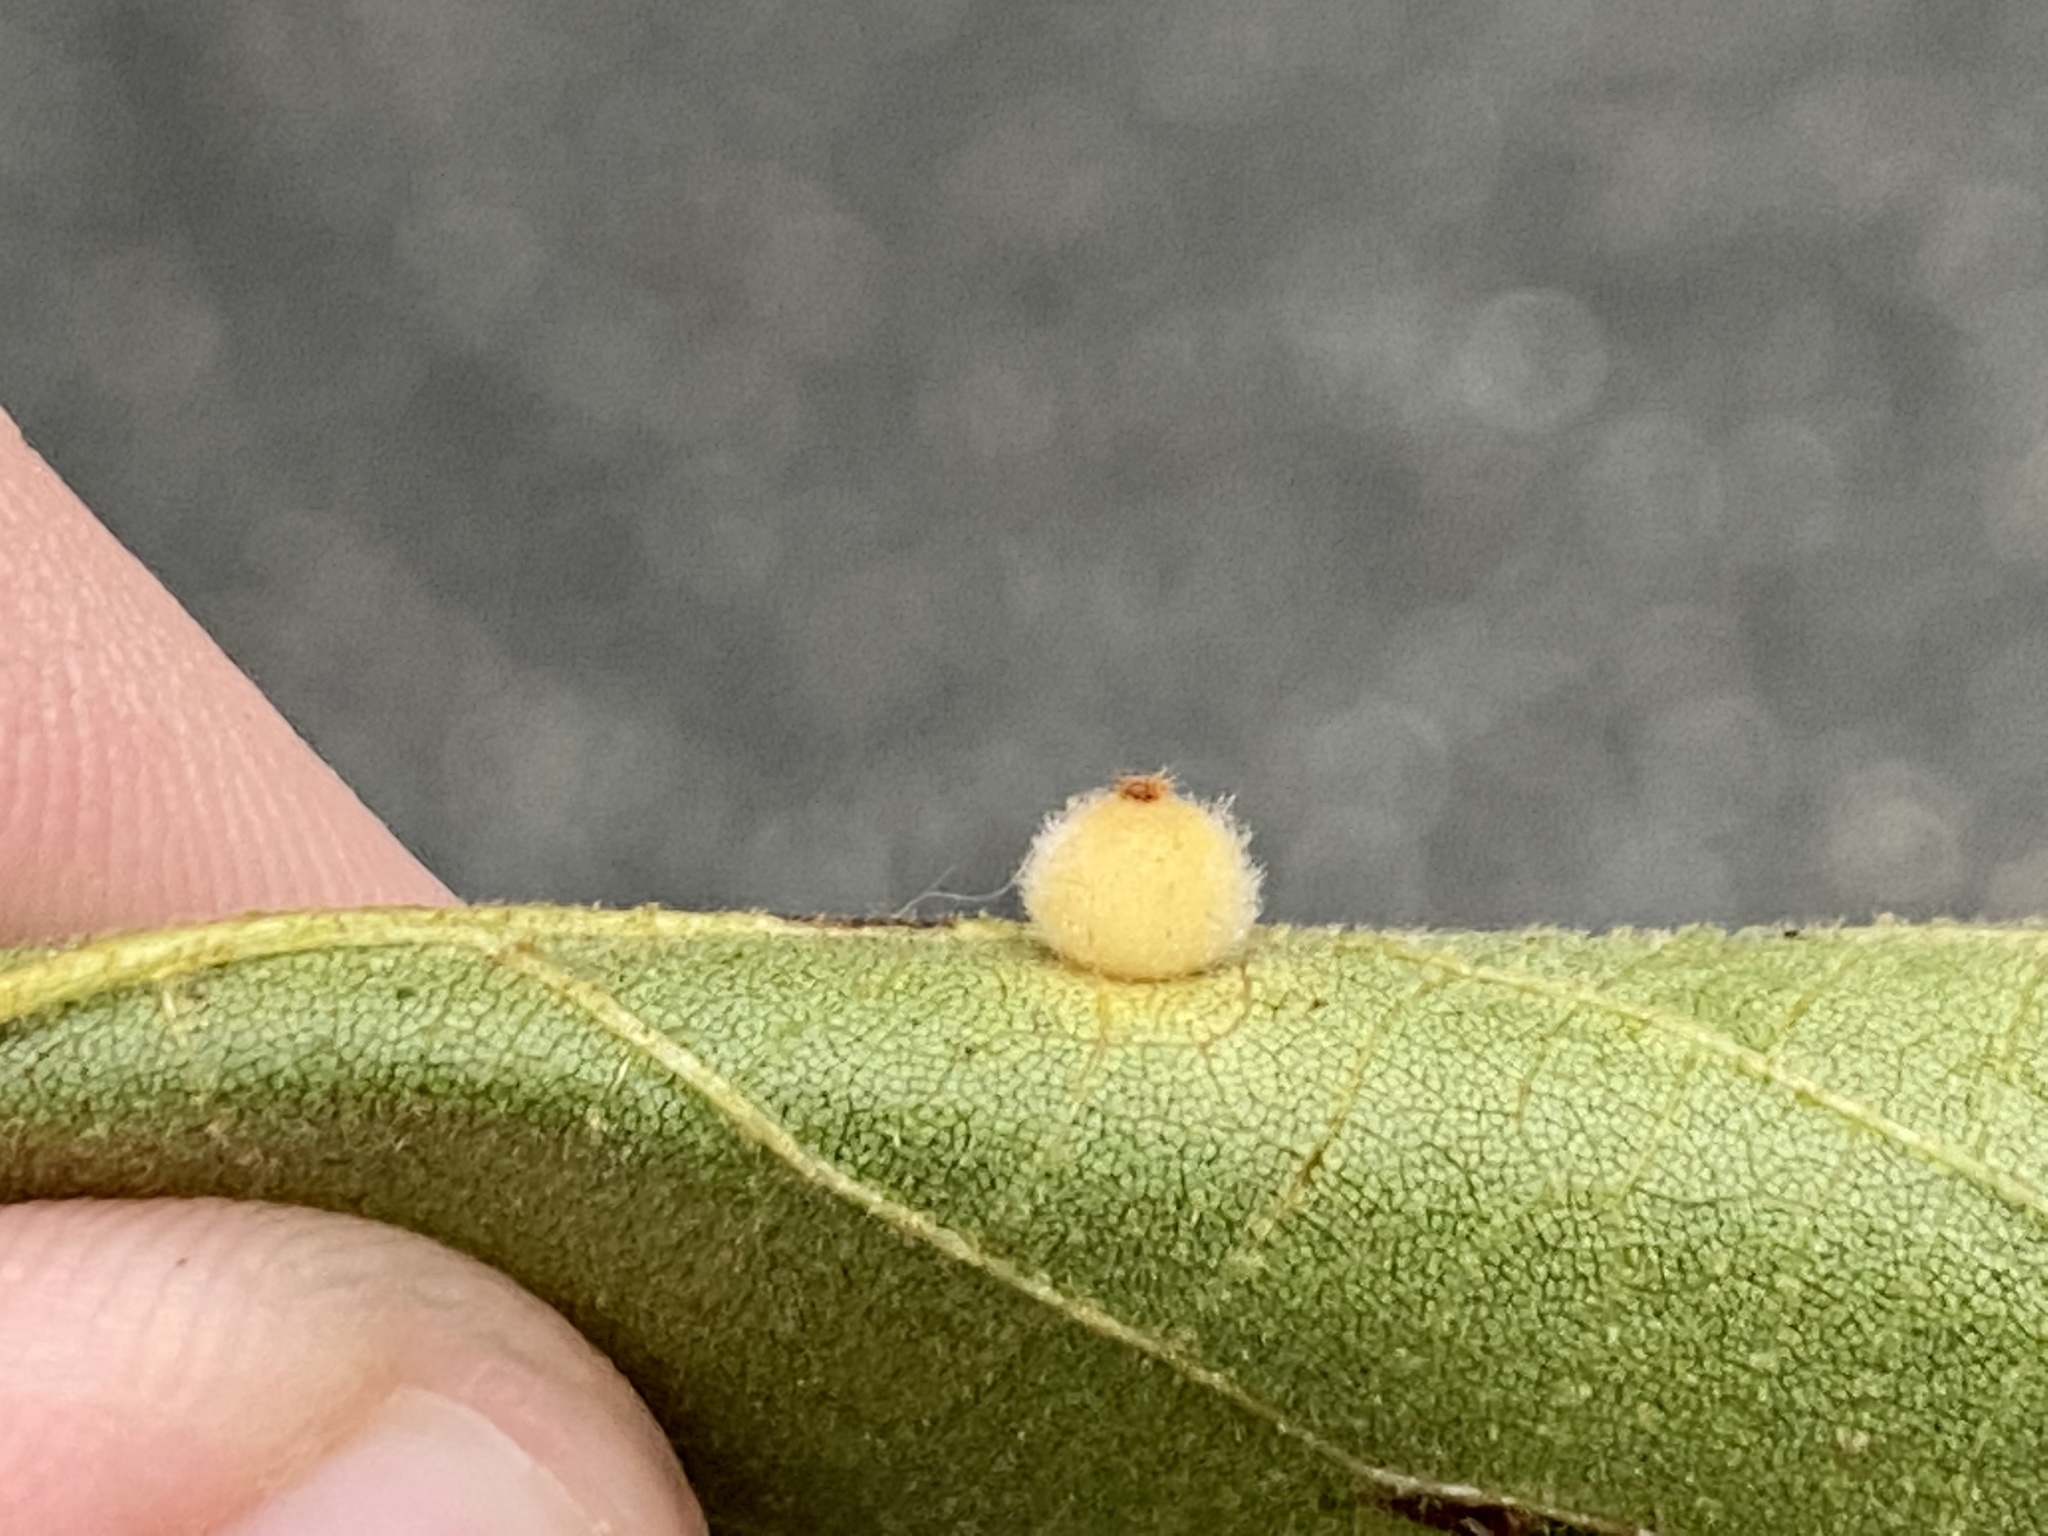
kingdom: Animalia
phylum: Arthropoda
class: Insecta
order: Diptera
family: Cecidomyiidae
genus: Caryomyia
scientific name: Caryomyia hirtidolium
